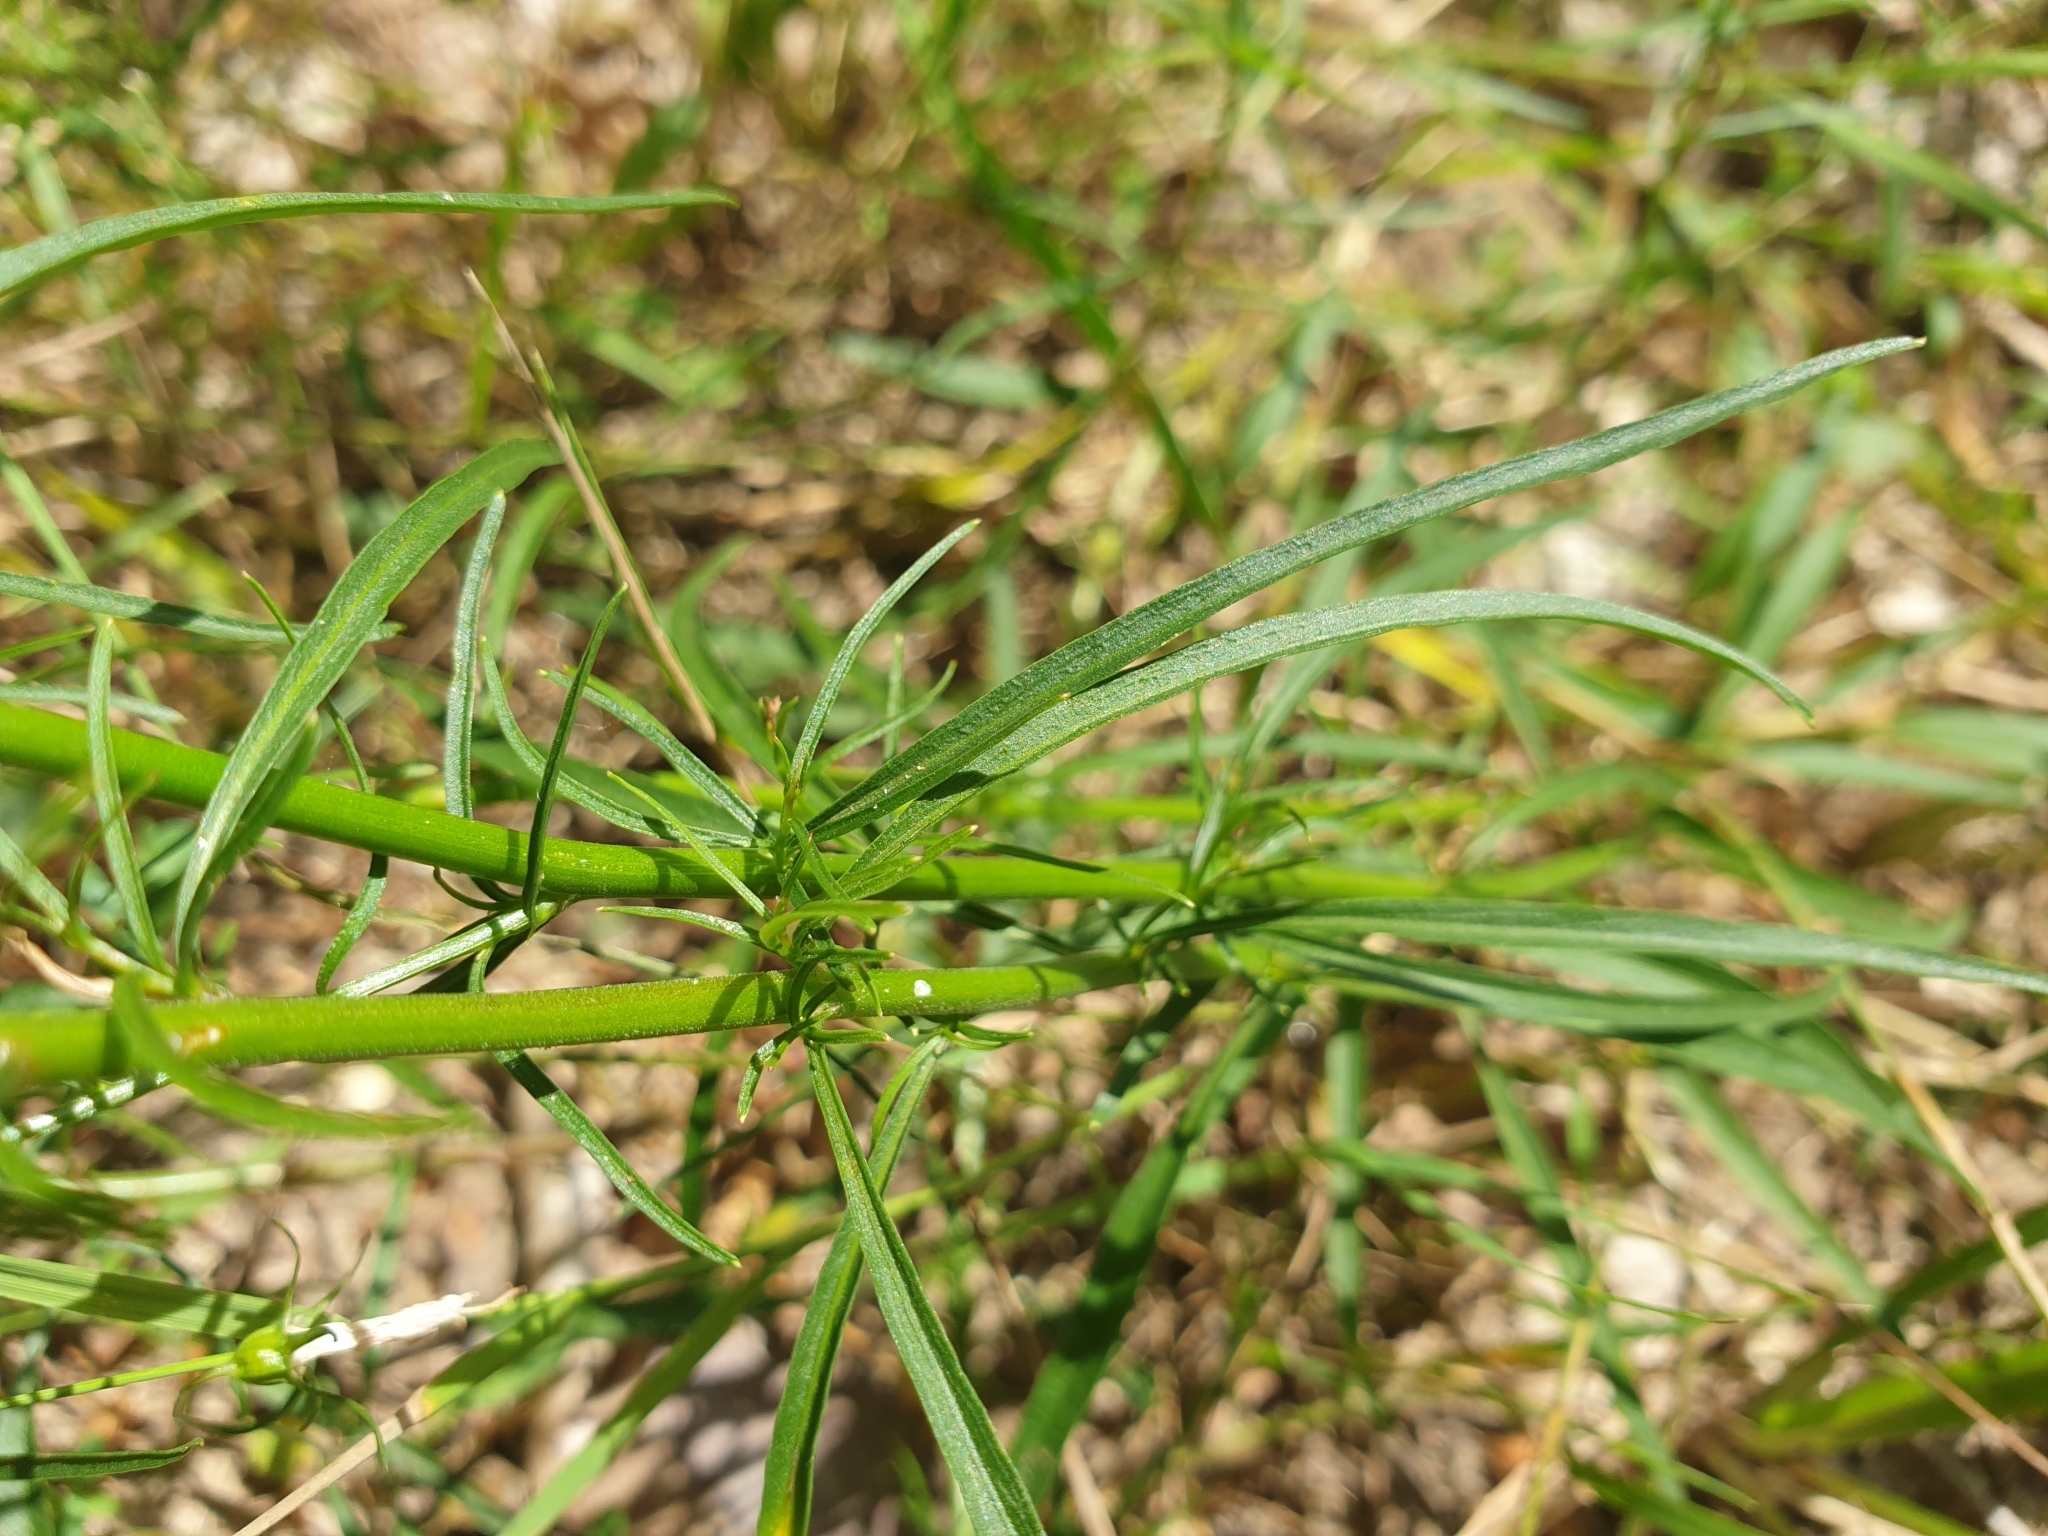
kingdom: Plantae
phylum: Tracheophyta
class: Magnoliopsida
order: Asterales
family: Campanulaceae
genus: Campanula
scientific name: Campanula rotundifolia
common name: Harebell
